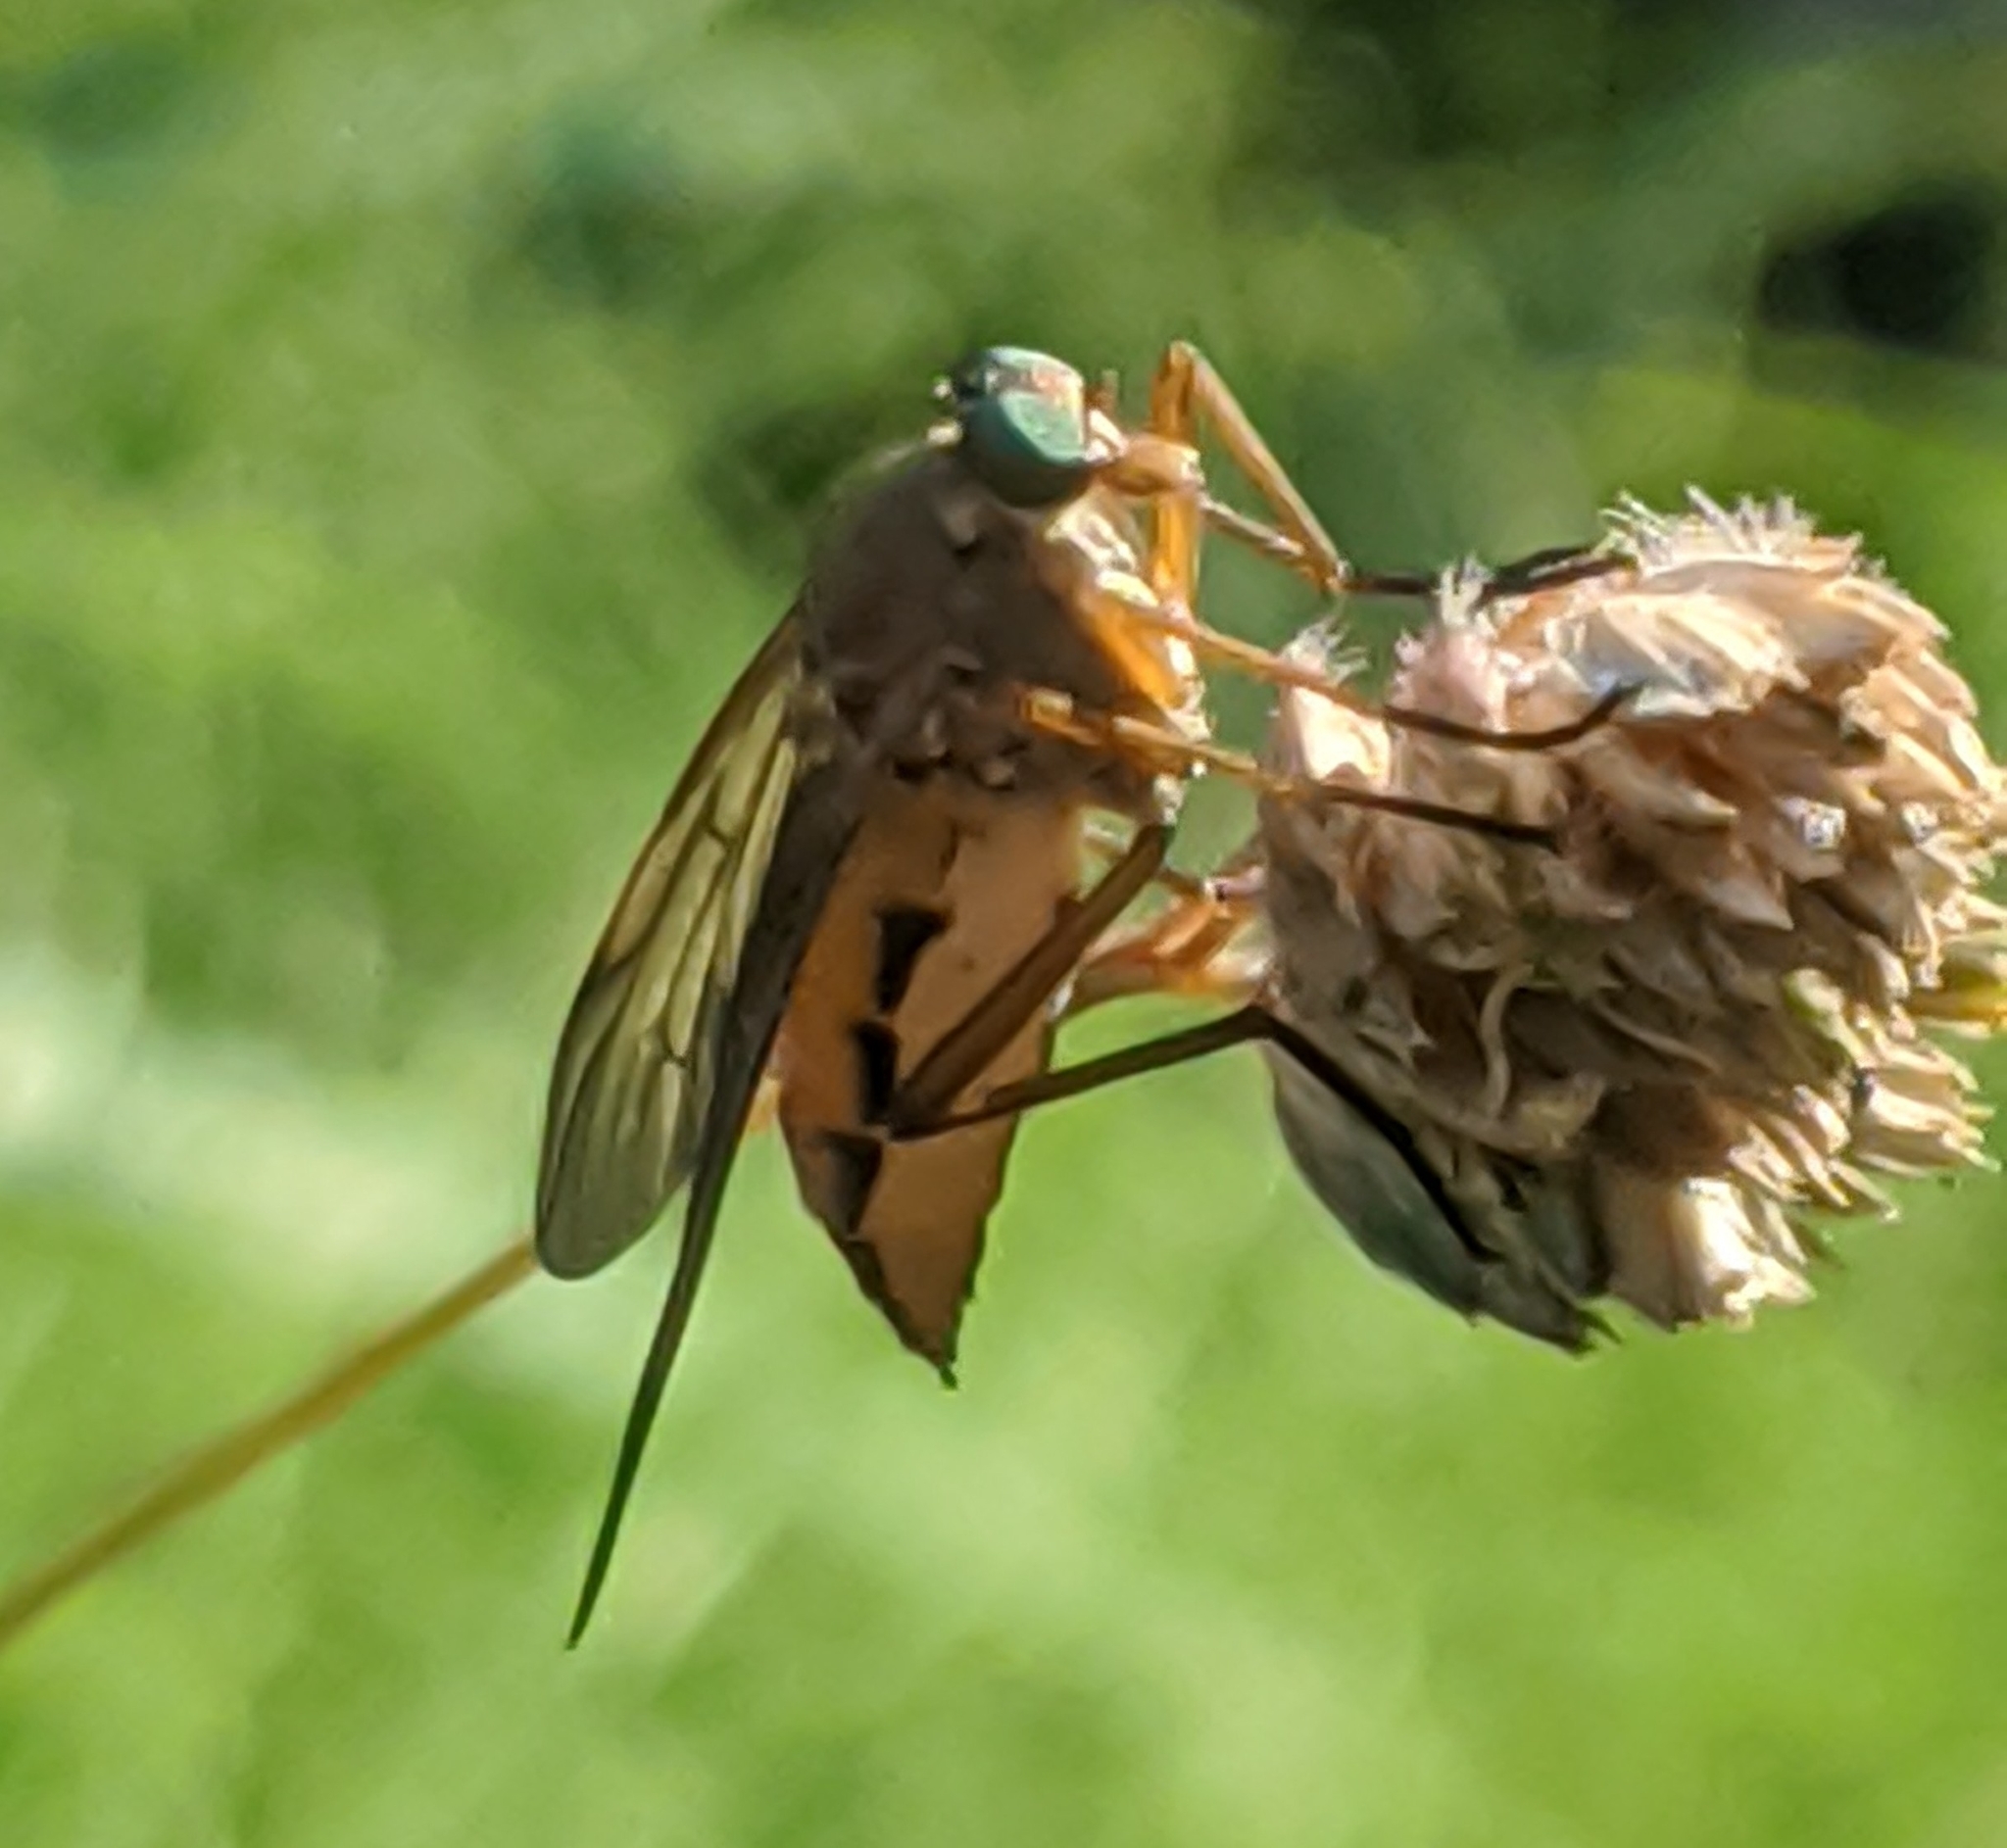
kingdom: Animalia
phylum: Arthropoda
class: Insecta
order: Diptera
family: Rhagionidae
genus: Rhagio
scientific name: Rhagio tringaria
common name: Marsh snipefly
